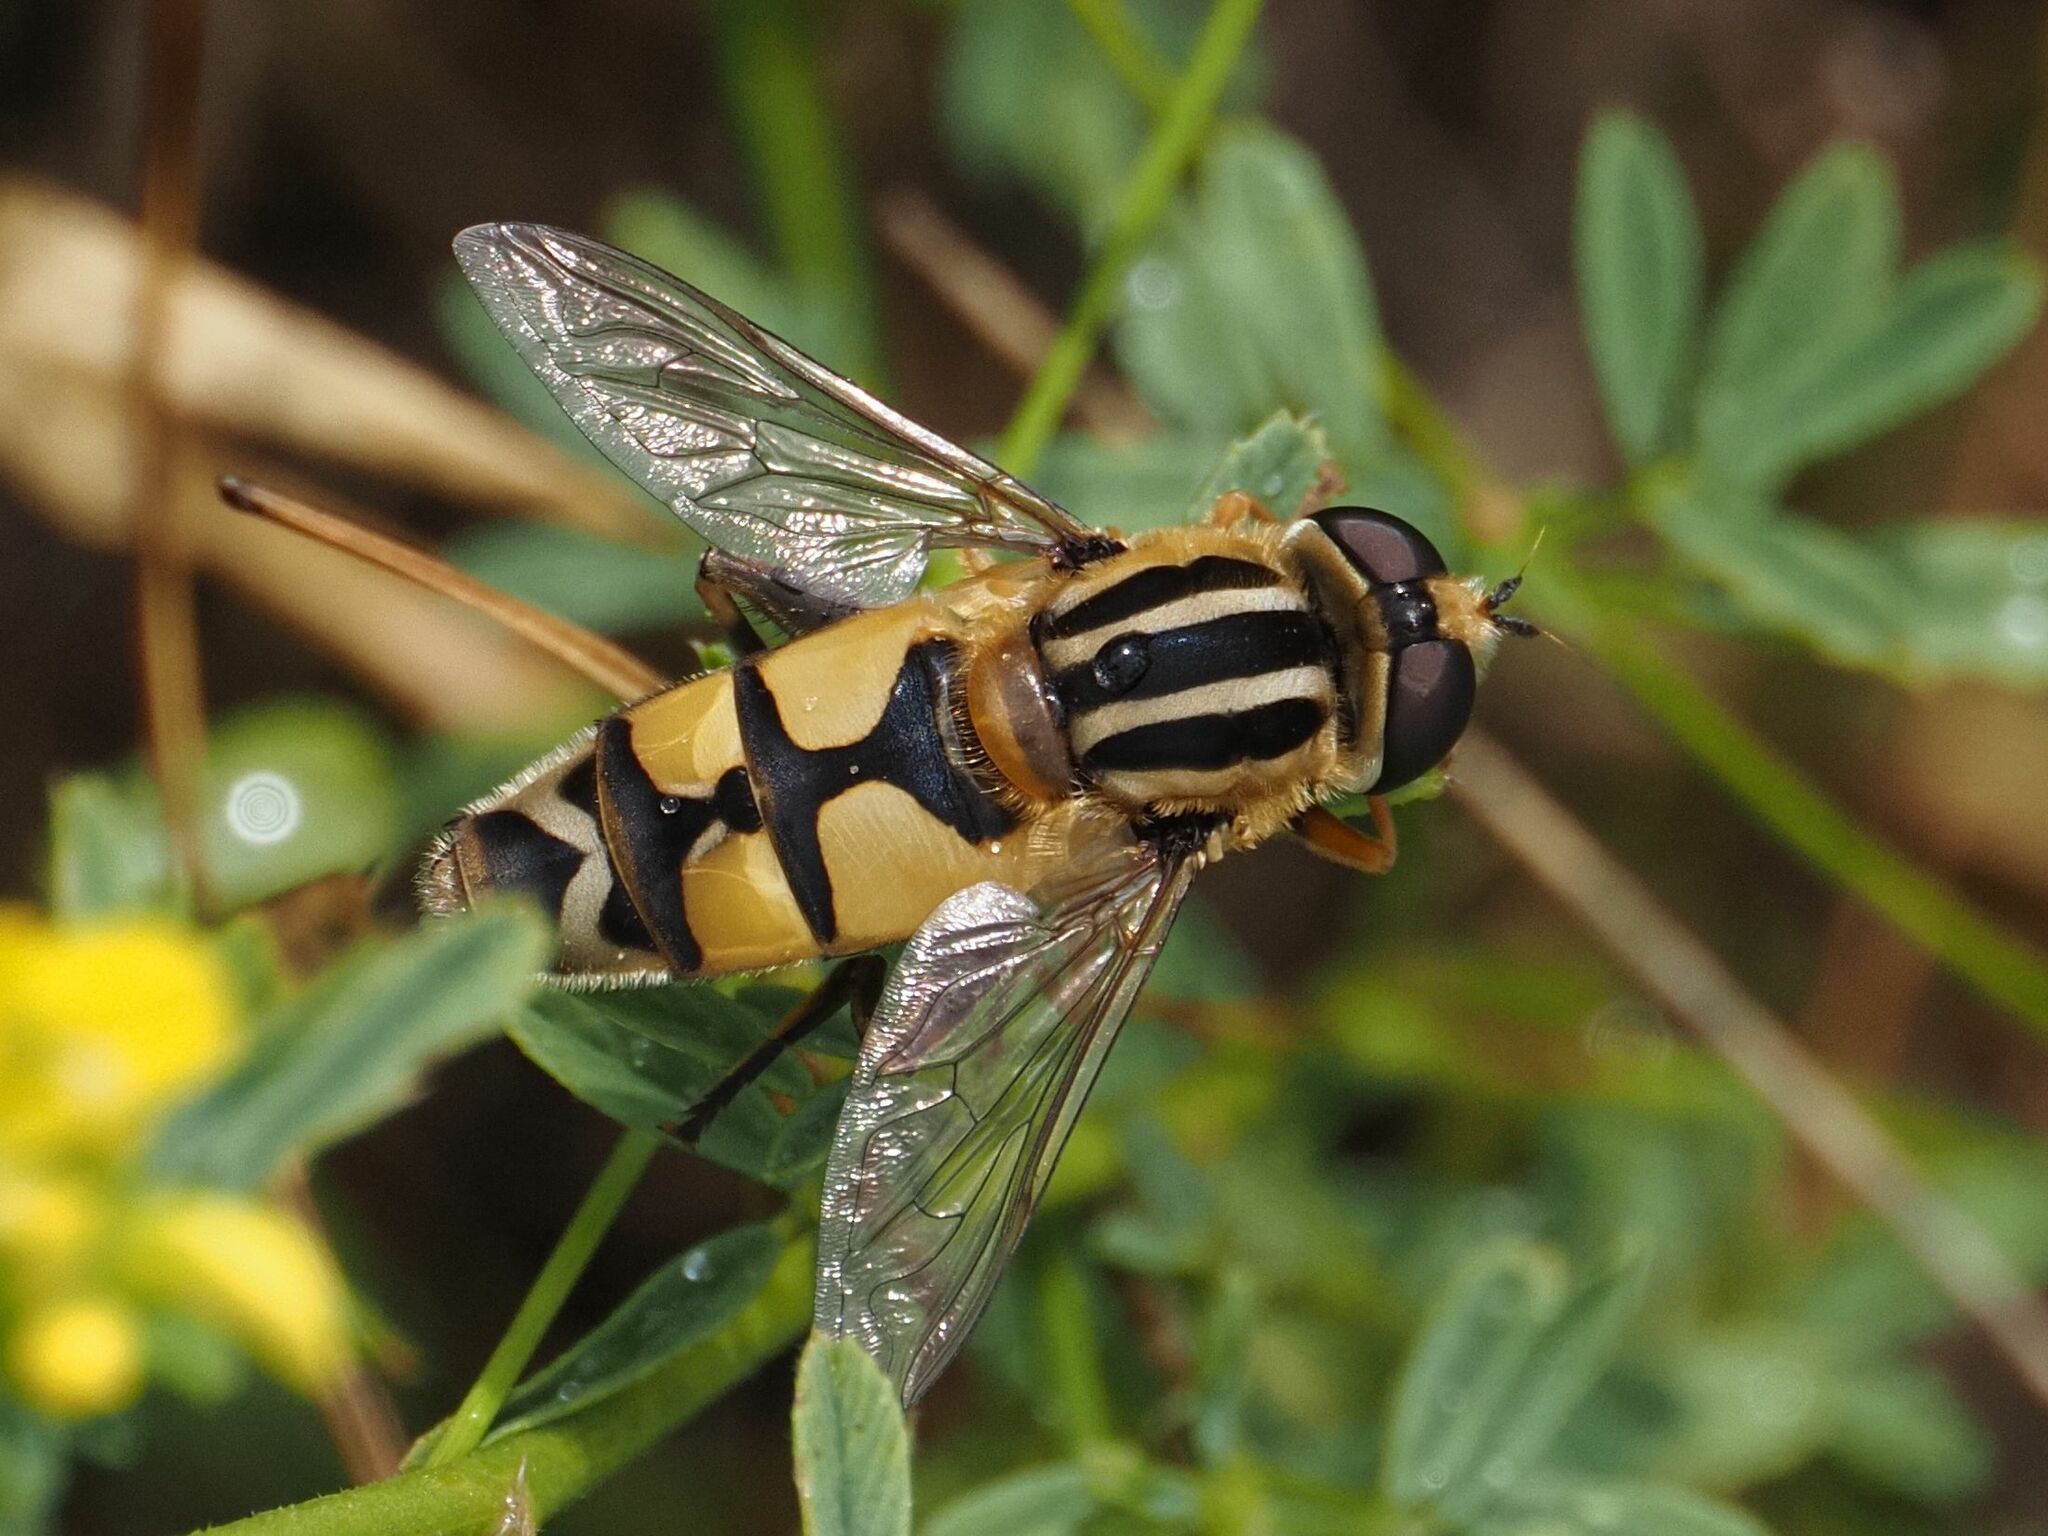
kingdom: Animalia
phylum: Arthropoda
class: Insecta
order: Diptera
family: Syrphidae
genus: Helophilus
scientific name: Helophilus trivittatus
